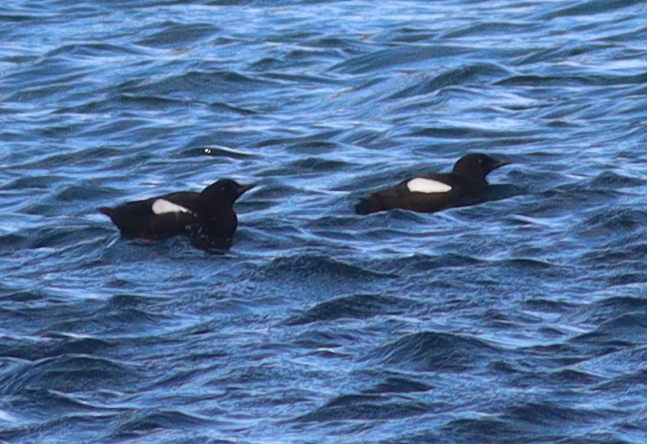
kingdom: Animalia
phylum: Chordata
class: Aves
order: Charadriiformes
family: Alcidae
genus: Cepphus
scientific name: Cepphus grylle
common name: Black guillemot
